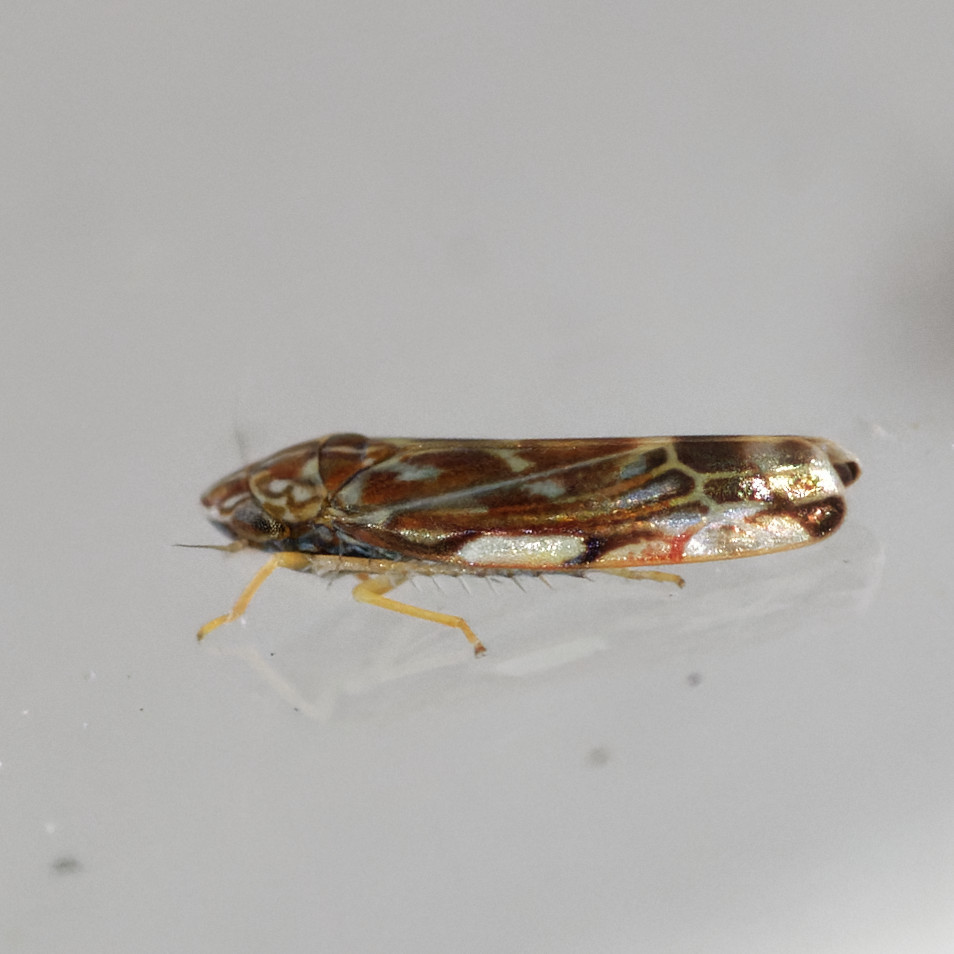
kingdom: Animalia
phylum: Arthropoda
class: Insecta
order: Hemiptera
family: Cicadellidae
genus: Erasmoneura
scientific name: Erasmoneura vulnerata
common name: The wounded leafhopper
